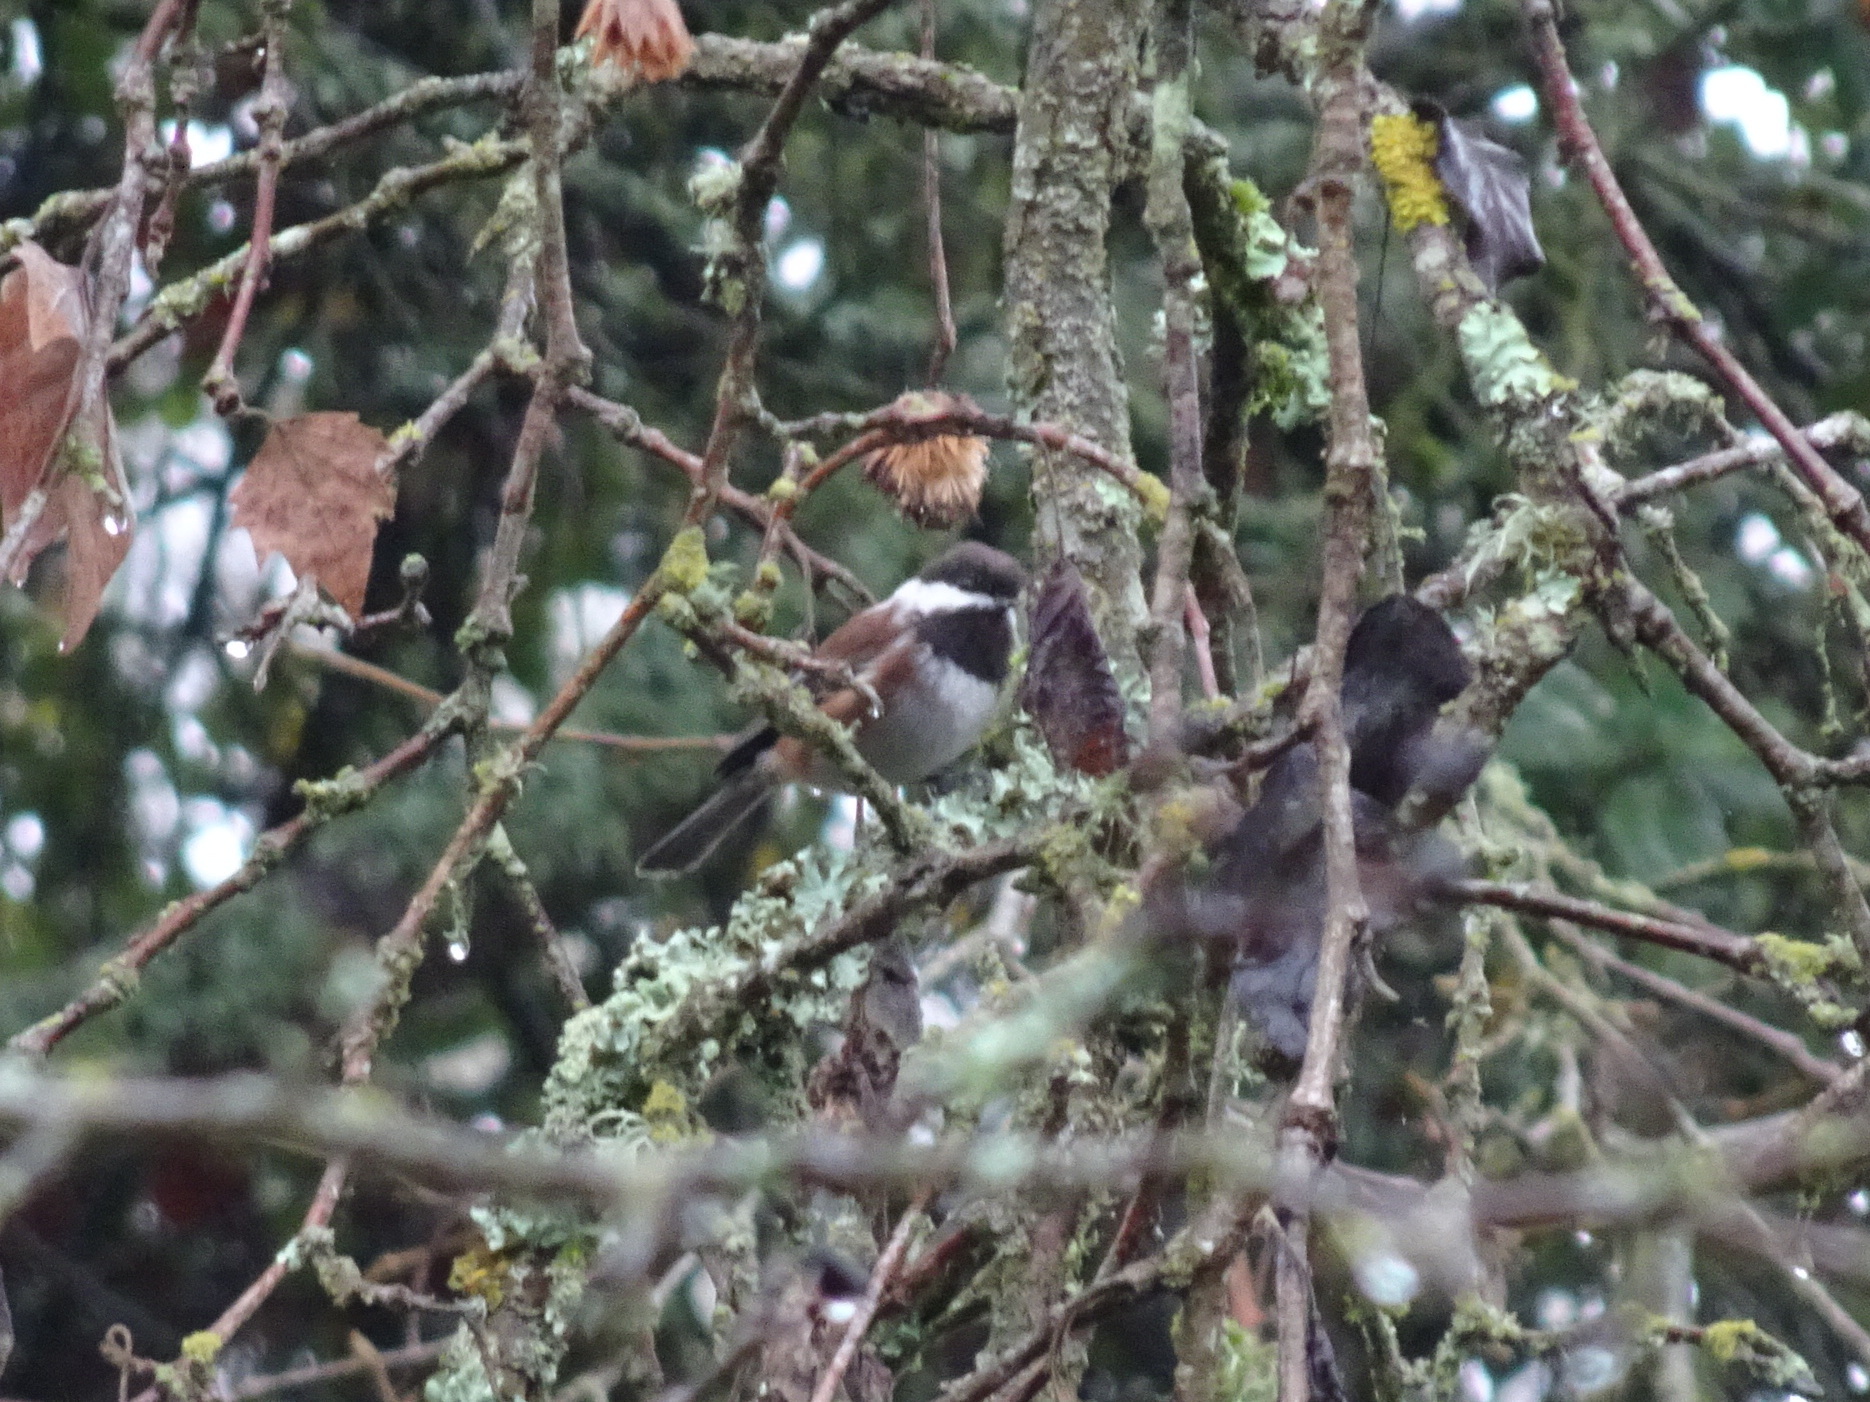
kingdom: Animalia
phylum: Chordata
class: Aves
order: Passeriformes
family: Paridae
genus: Poecile
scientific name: Poecile rufescens
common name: Chestnut-backed chickadee
